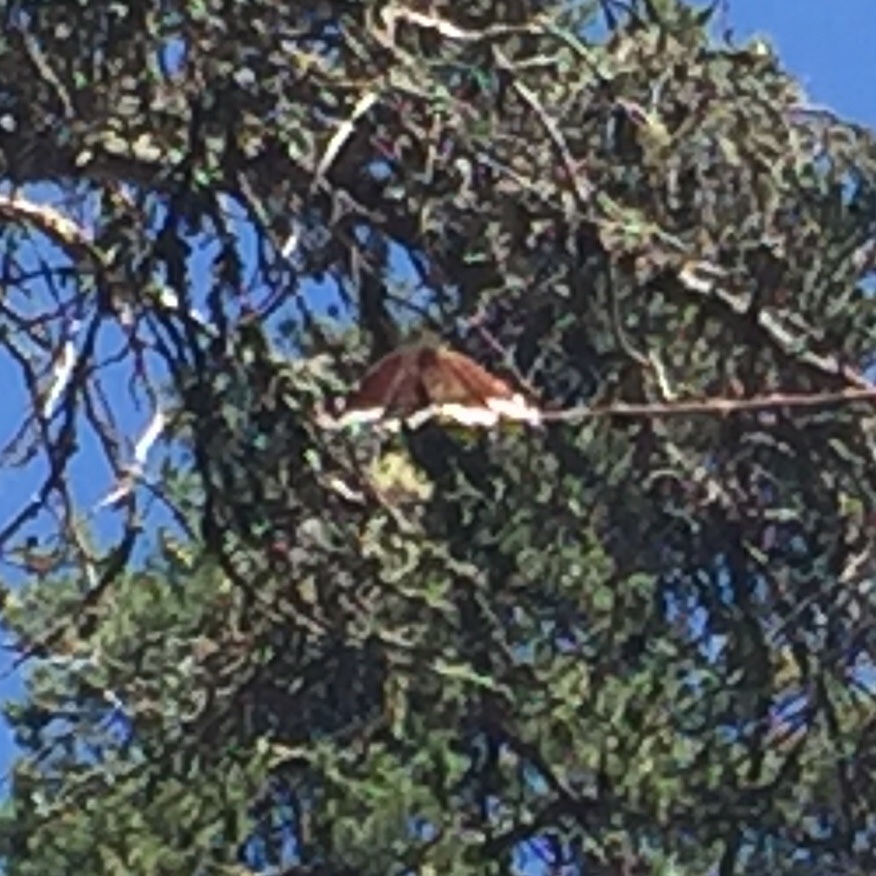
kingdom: Animalia
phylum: Arthropoda
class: Insecta
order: Lepidoptera
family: Nymphalidae
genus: Nymphalis
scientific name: Nymphalis antiopa
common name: Camberwell beauty
